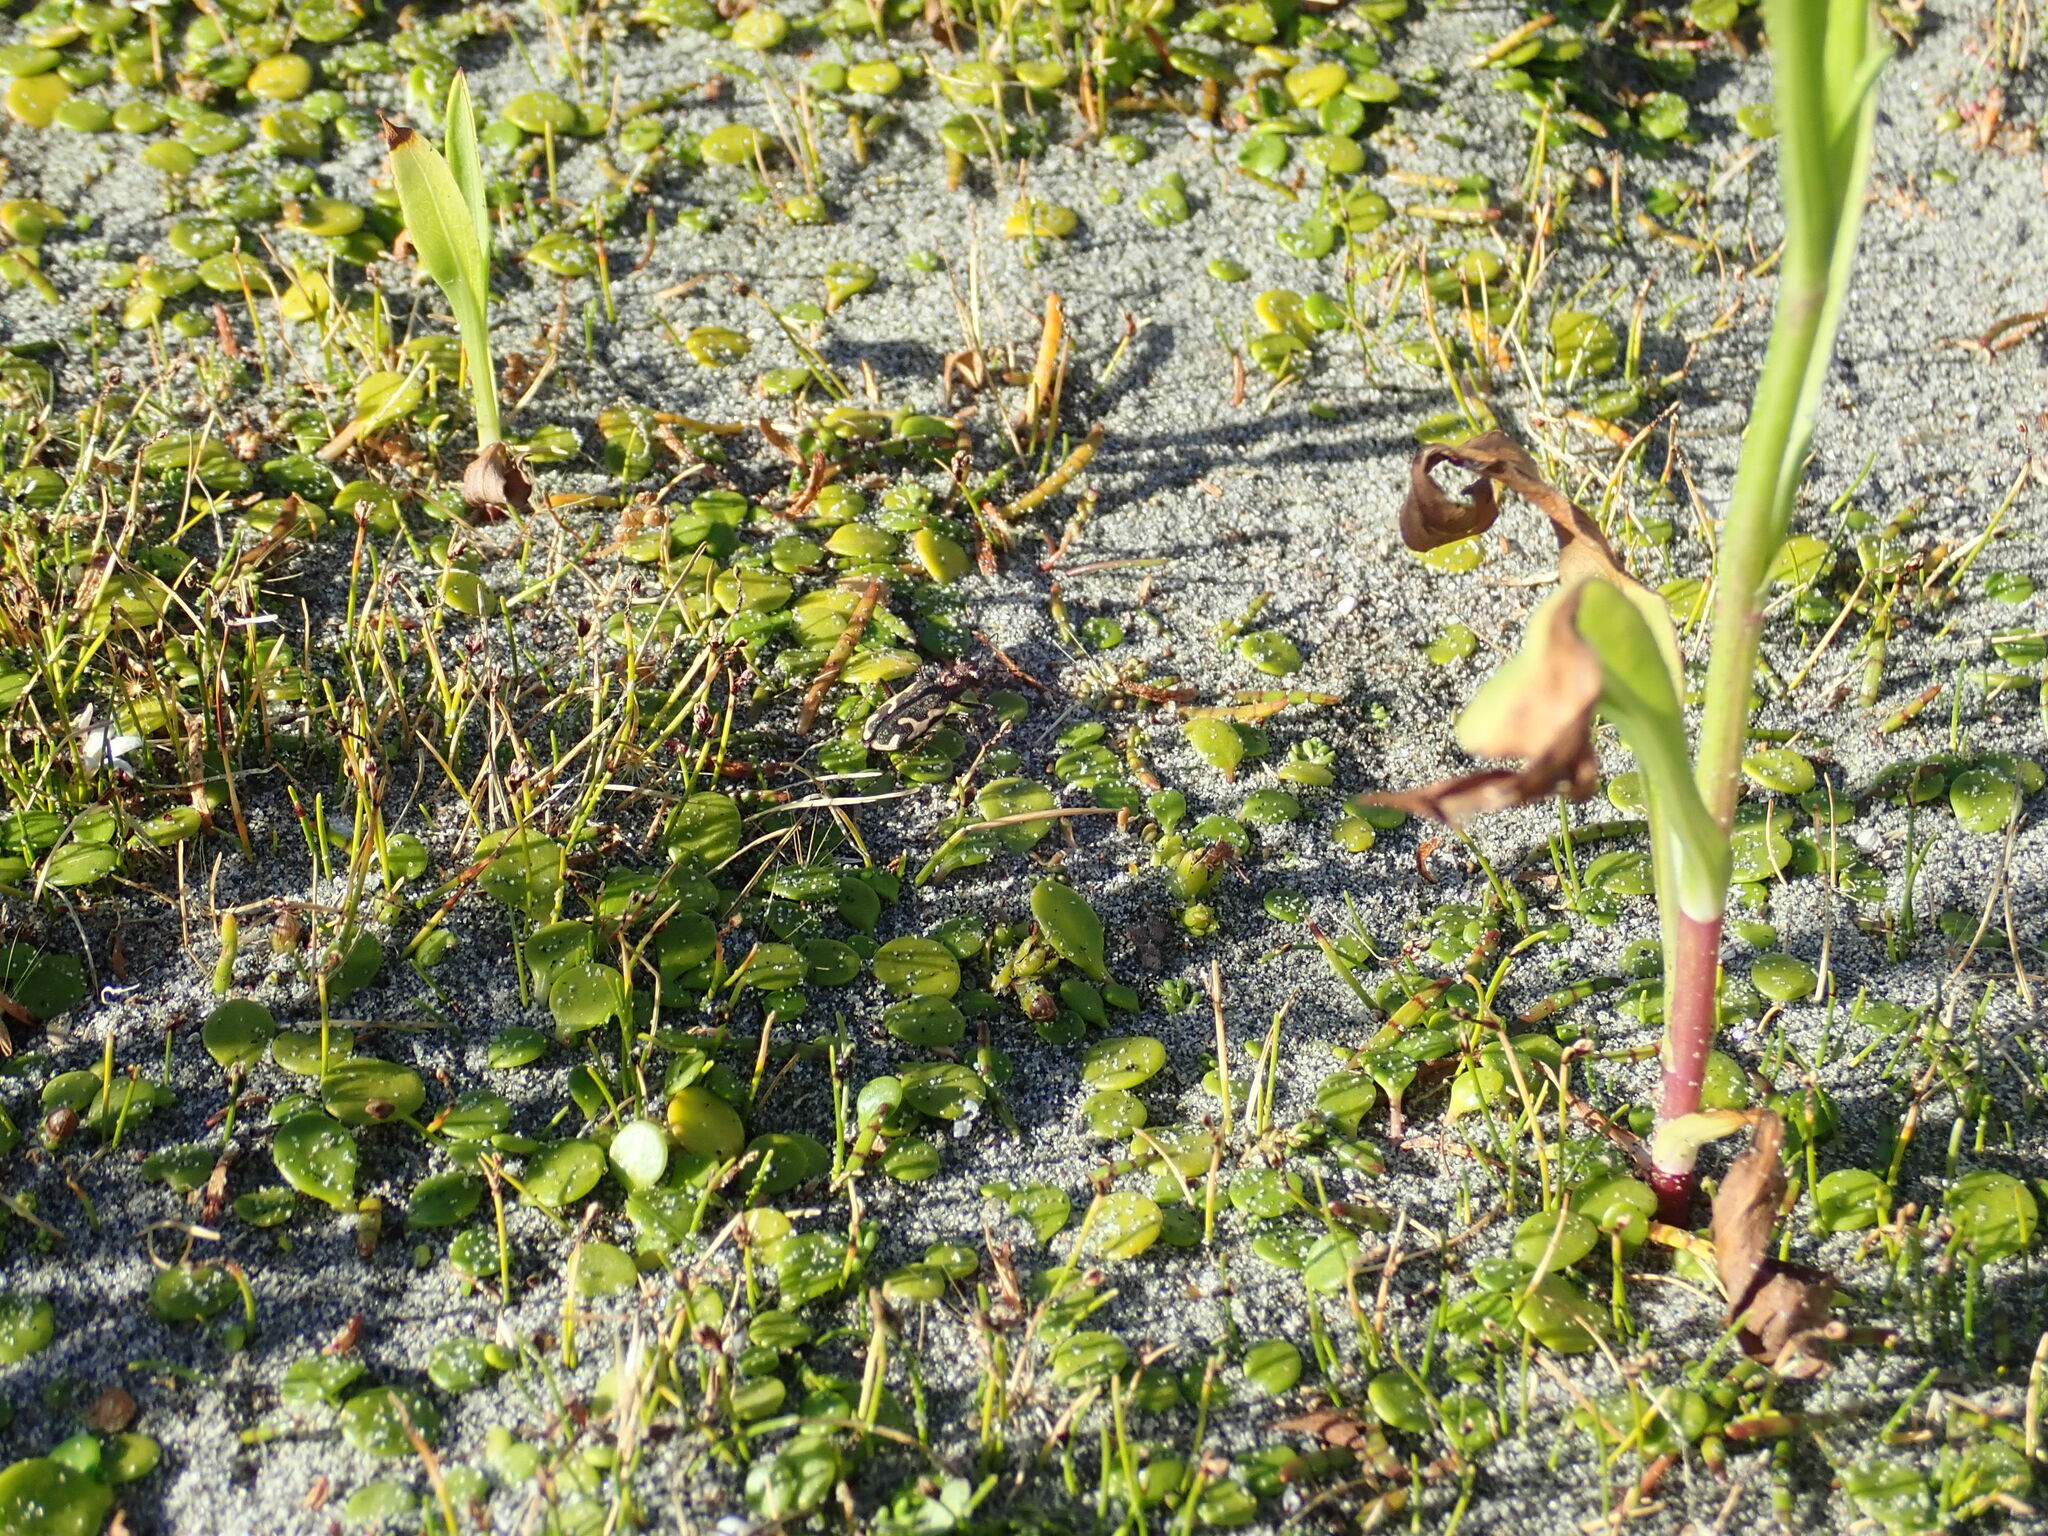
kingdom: Animalia
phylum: Arthropoda
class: Insecta
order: Coleoptera
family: Carabidae
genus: Neocicindela
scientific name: Neocicindela tuberculata
